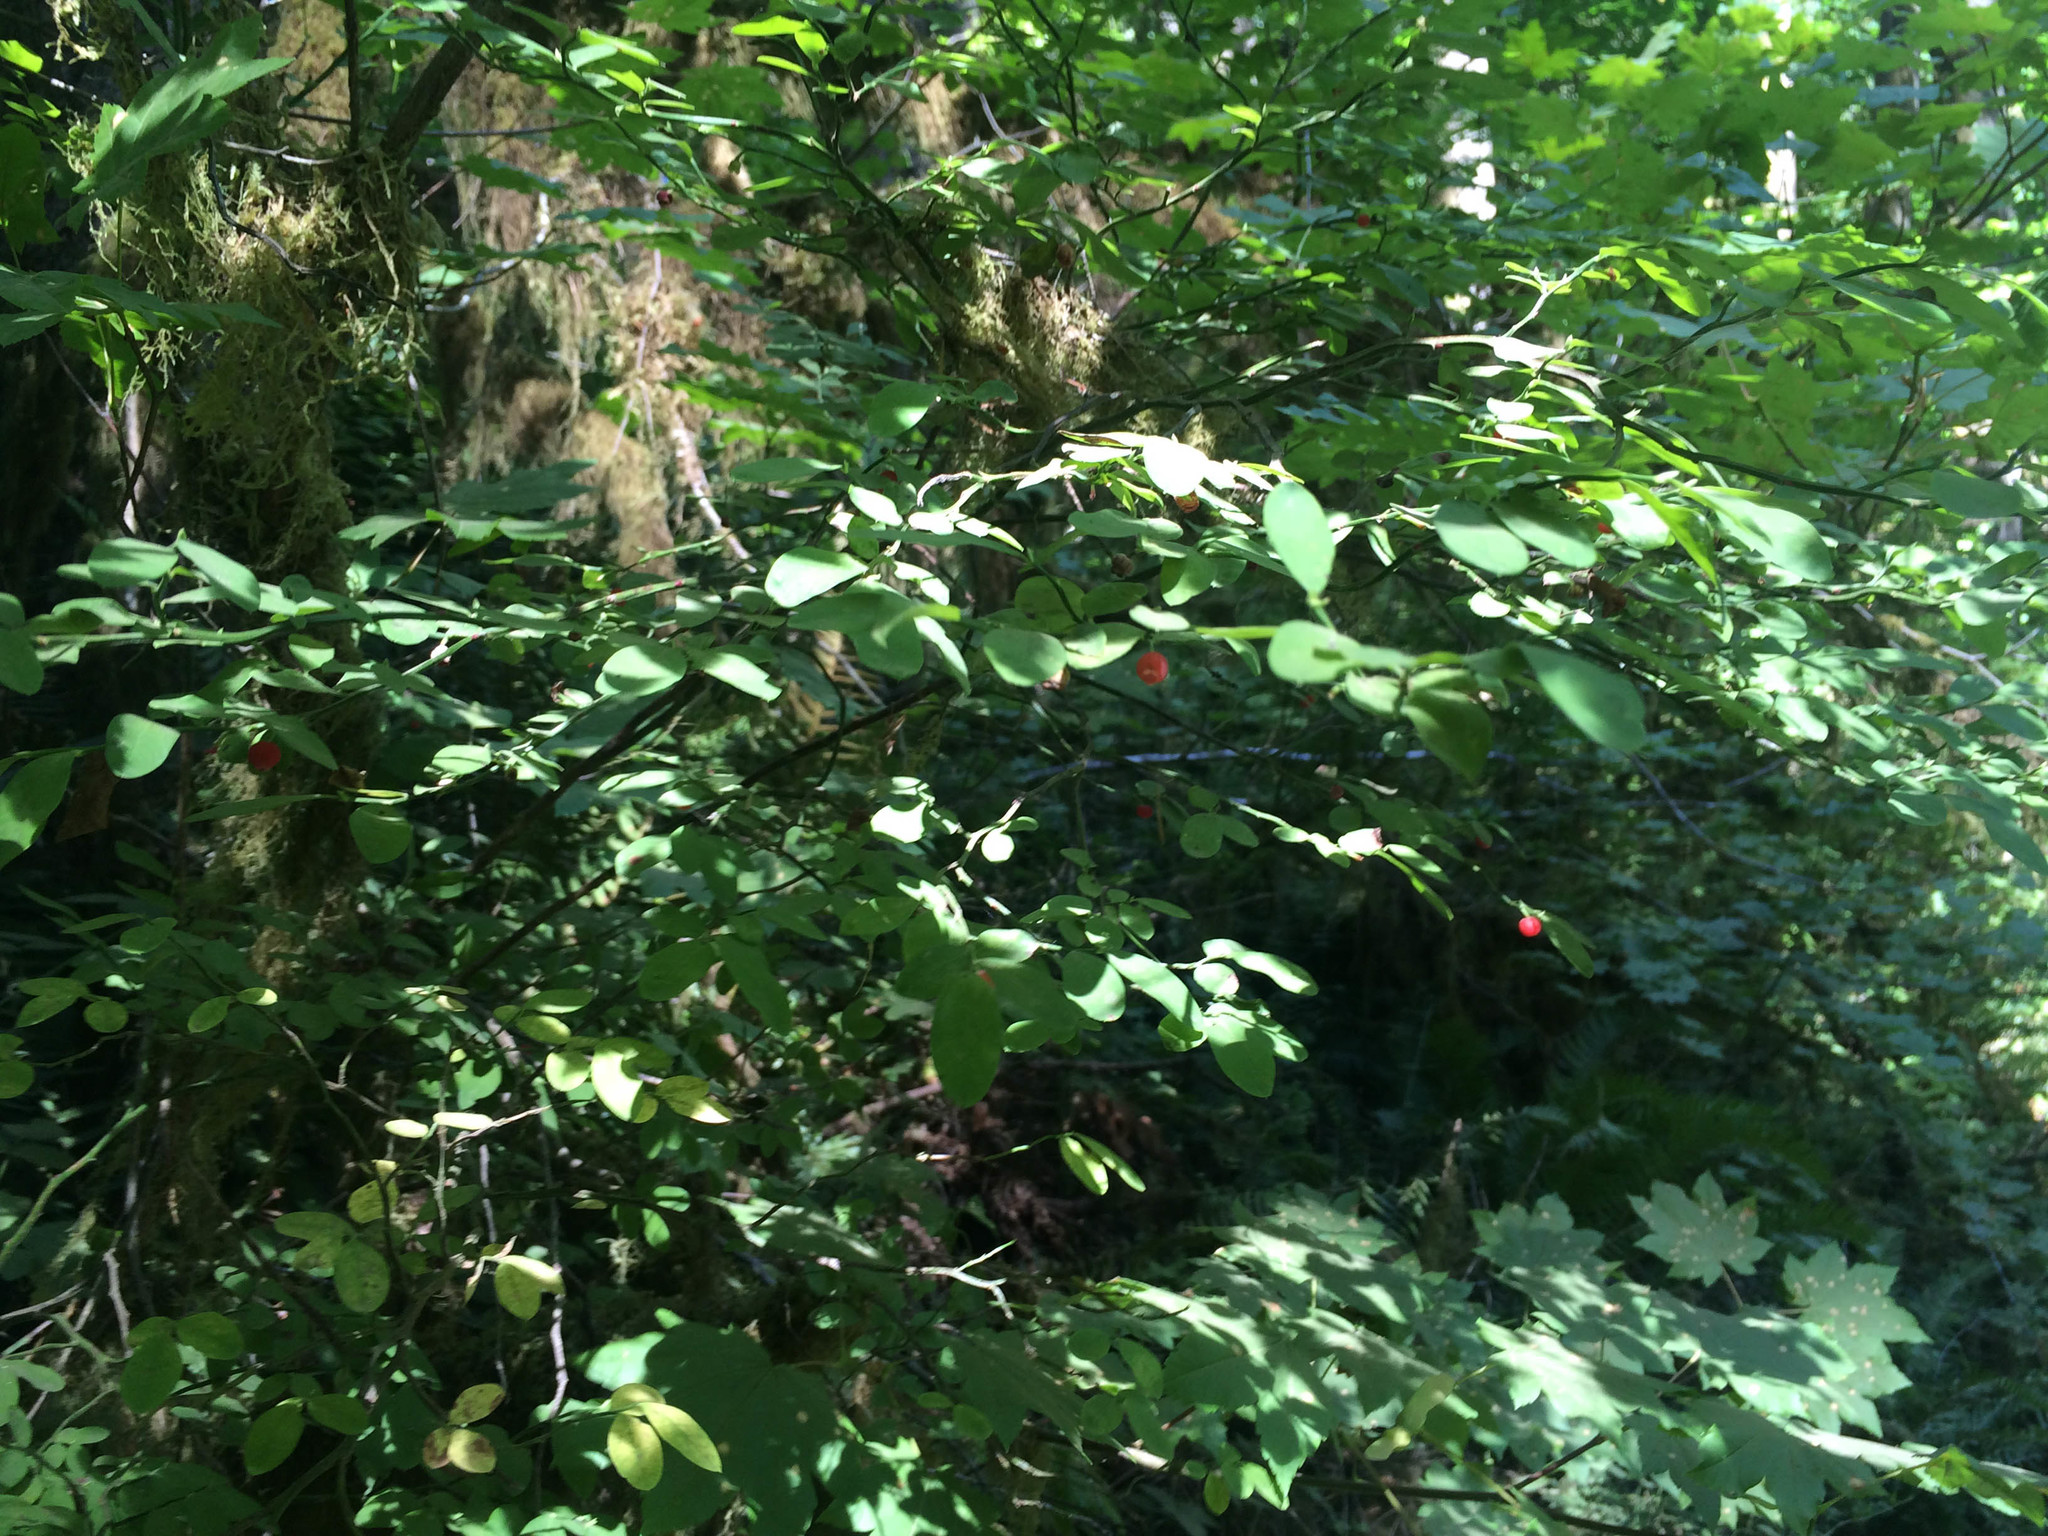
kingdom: Plantae
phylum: Tracheophyta
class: Magnoliopsida
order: Ericales
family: Ericaceae
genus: Vaccinium
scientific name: Vaccinium parvifolium
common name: Red-huckleberry
